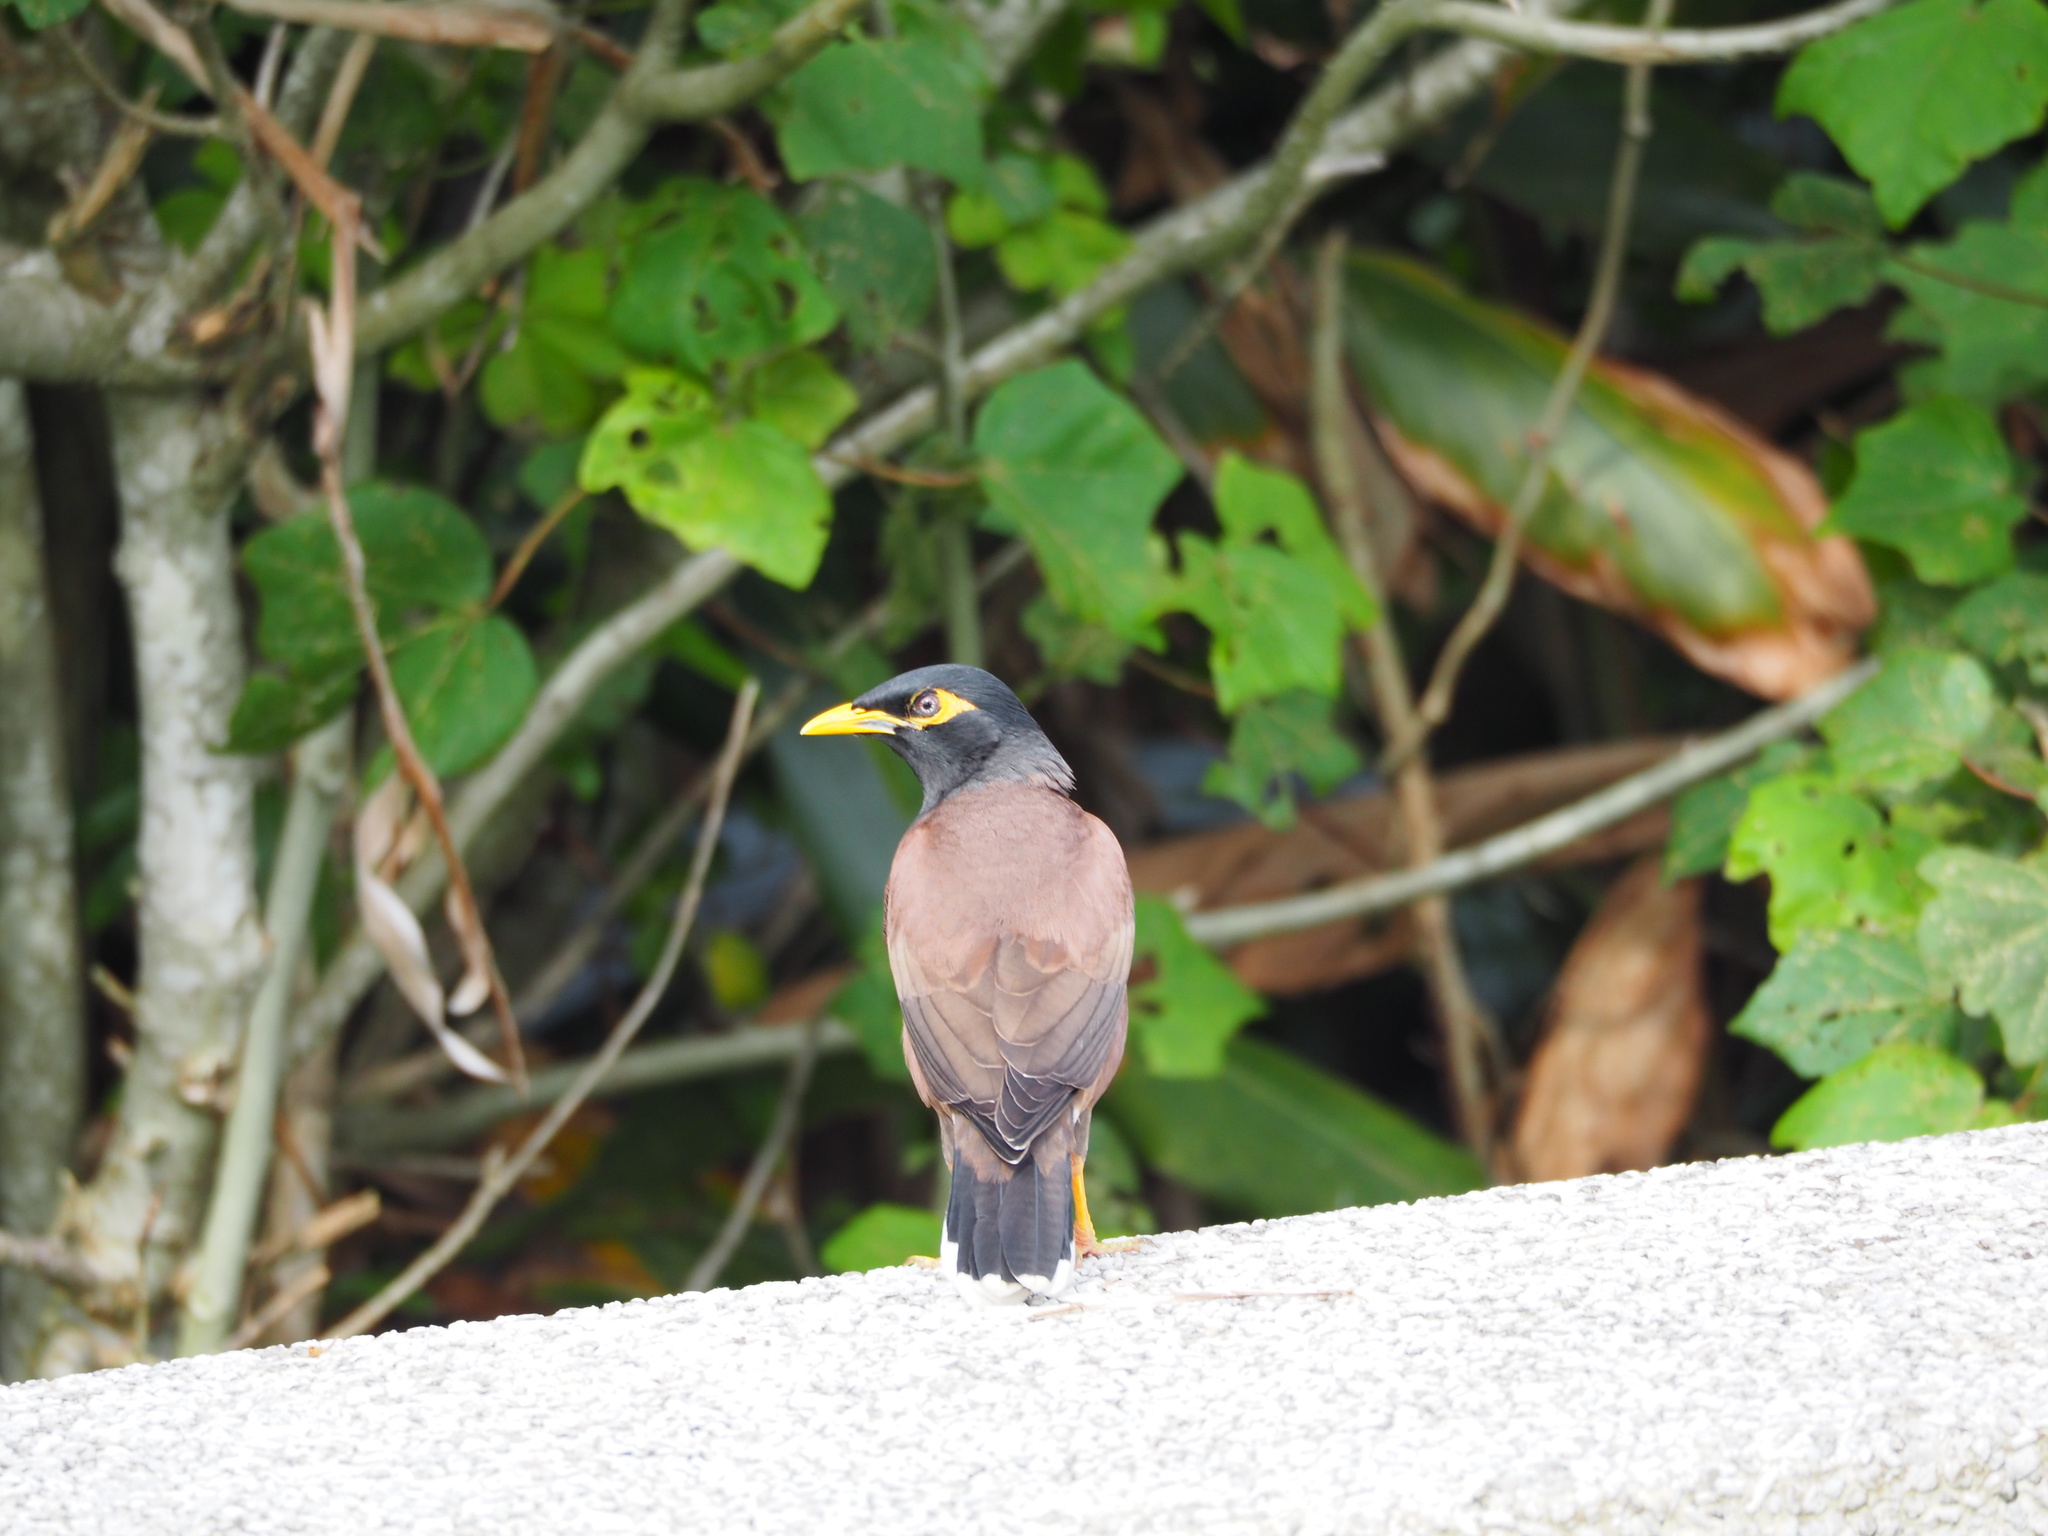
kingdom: Animalia
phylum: Chordata
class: Aves
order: Passeriformes
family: Sturnidae
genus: Acridotheres
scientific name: Acridotheres tristis
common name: Common myna
